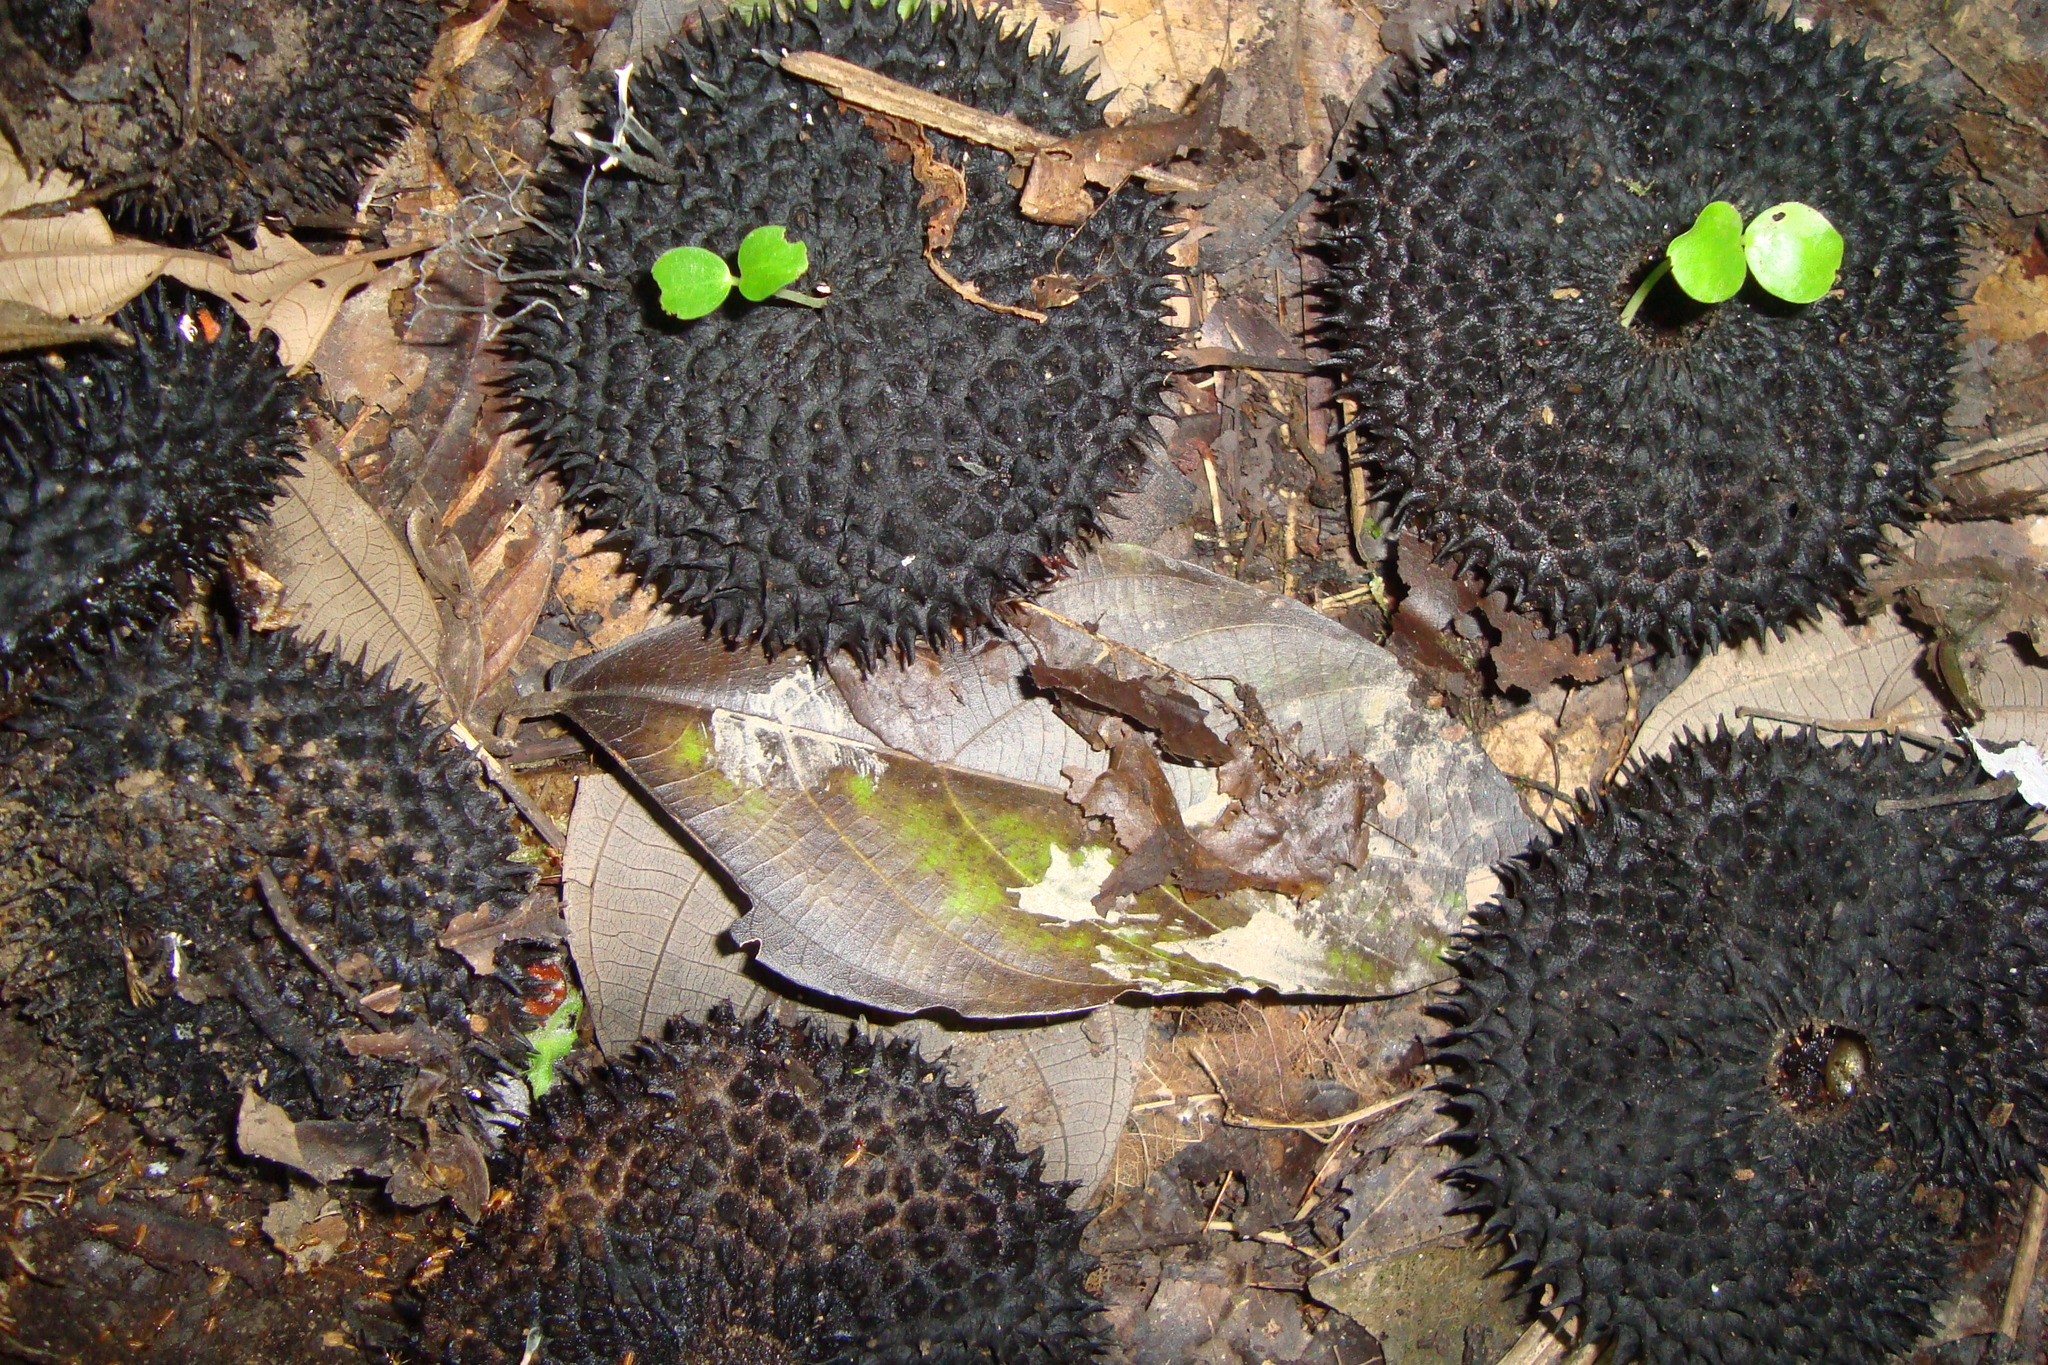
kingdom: Plantae
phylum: Tracheophyta
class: Magnoliopsida
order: Malvales
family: Malvaceae
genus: Apeiba
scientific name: Apeiba membranacea
